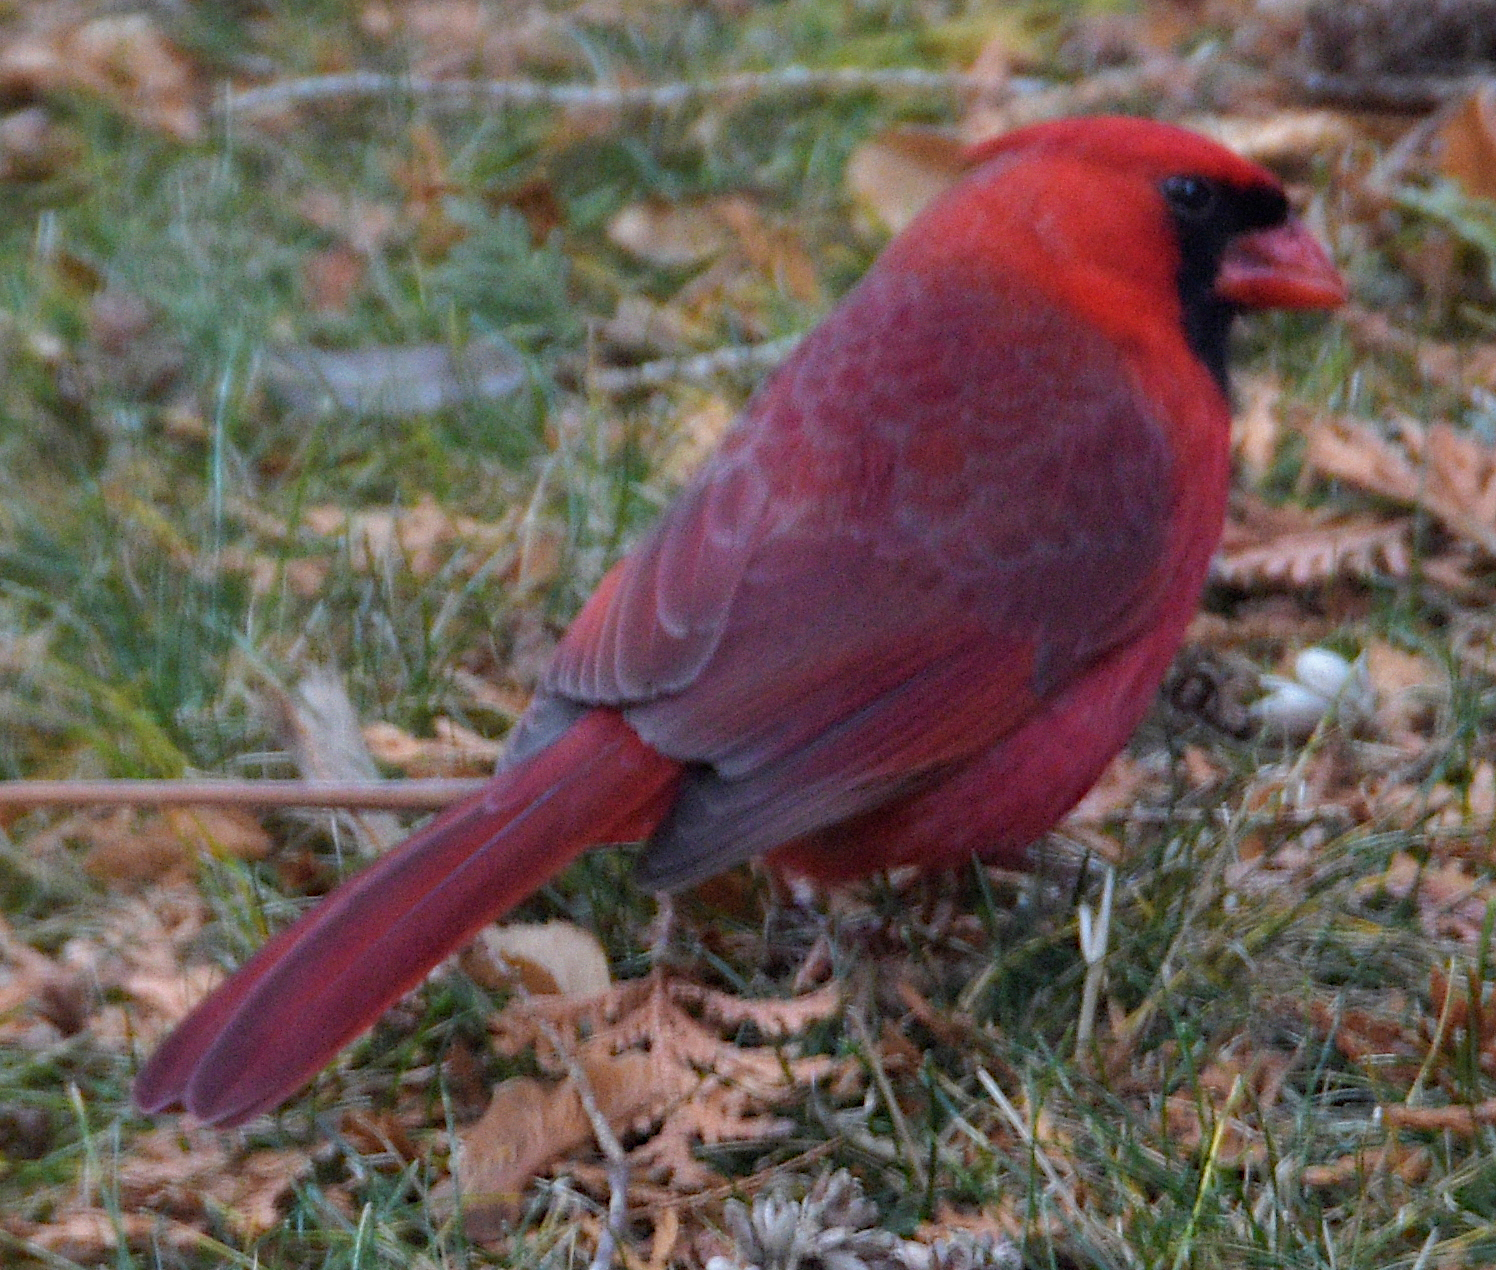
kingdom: Animalia
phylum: Chordata
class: Aves
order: Passeriformes
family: Cardinalidae
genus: Cardinalis
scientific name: Cardinalis cardinalis
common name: Northern cardinal
